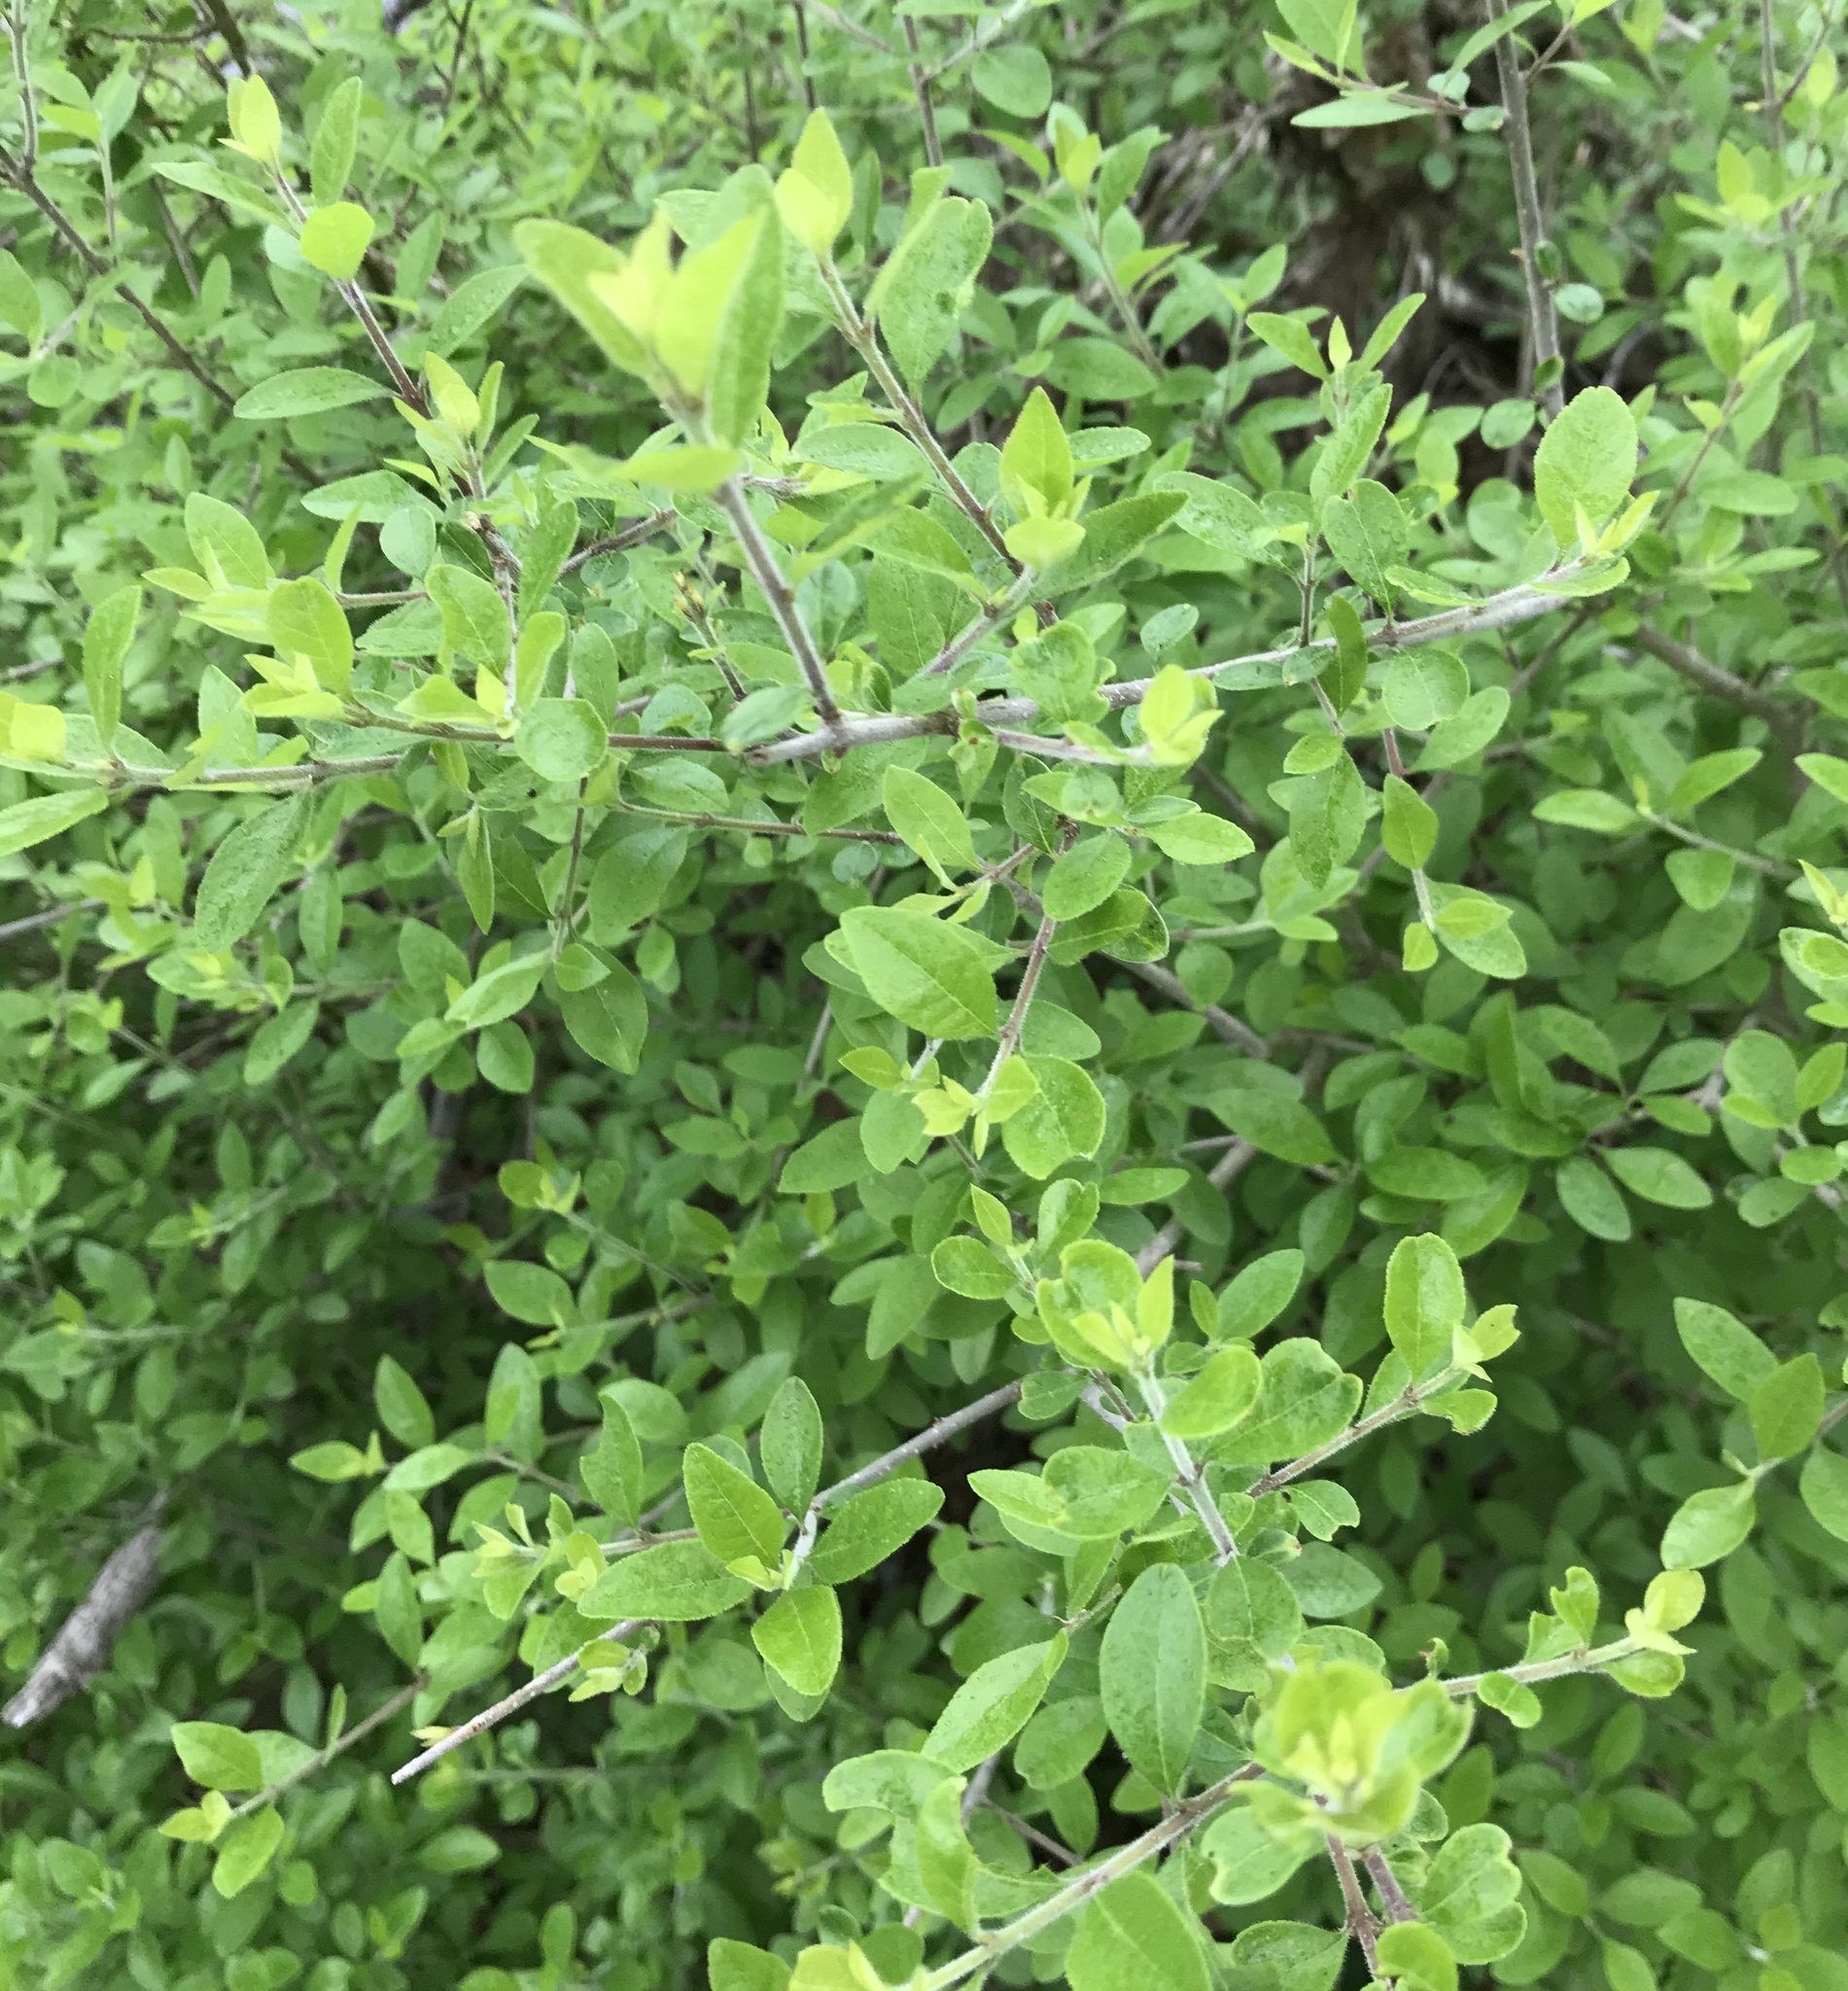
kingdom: Plantae
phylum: Tracheophyta
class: Magnoliopsida
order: Lamiales
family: Oleaceae
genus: Forestiera
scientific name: Forestiera pubescens
